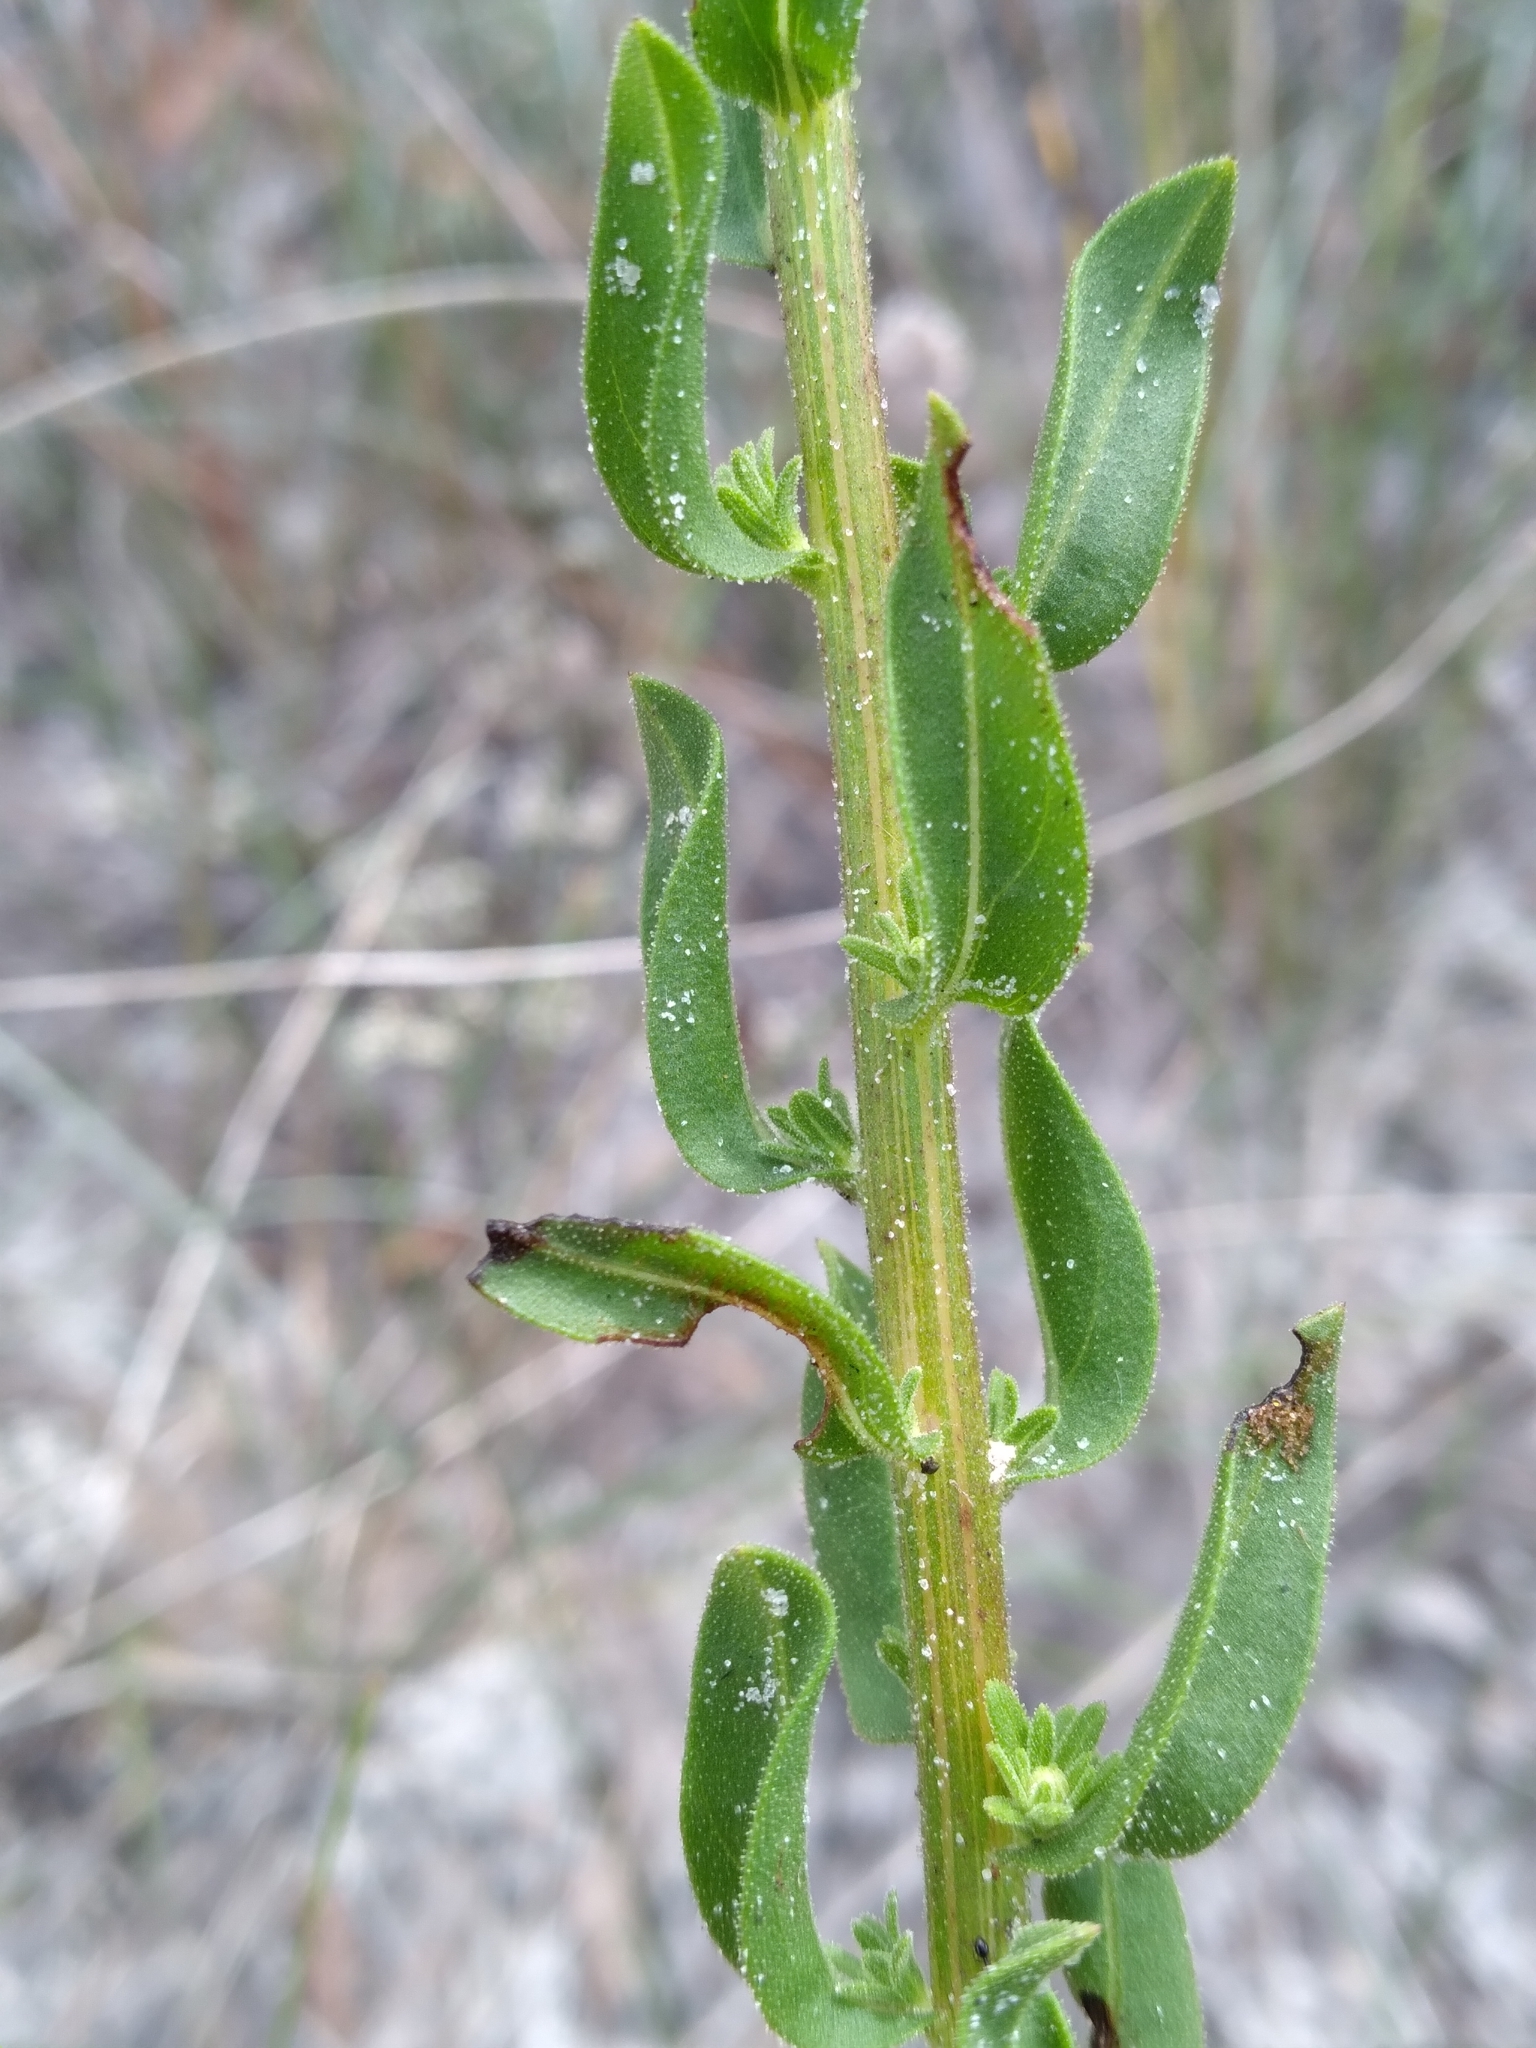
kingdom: Plantae
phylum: Tracheophyta
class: Magnoliopsida
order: Asterales
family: Asteraceae
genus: Chrysopsis
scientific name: Chrysopsis scabrella
